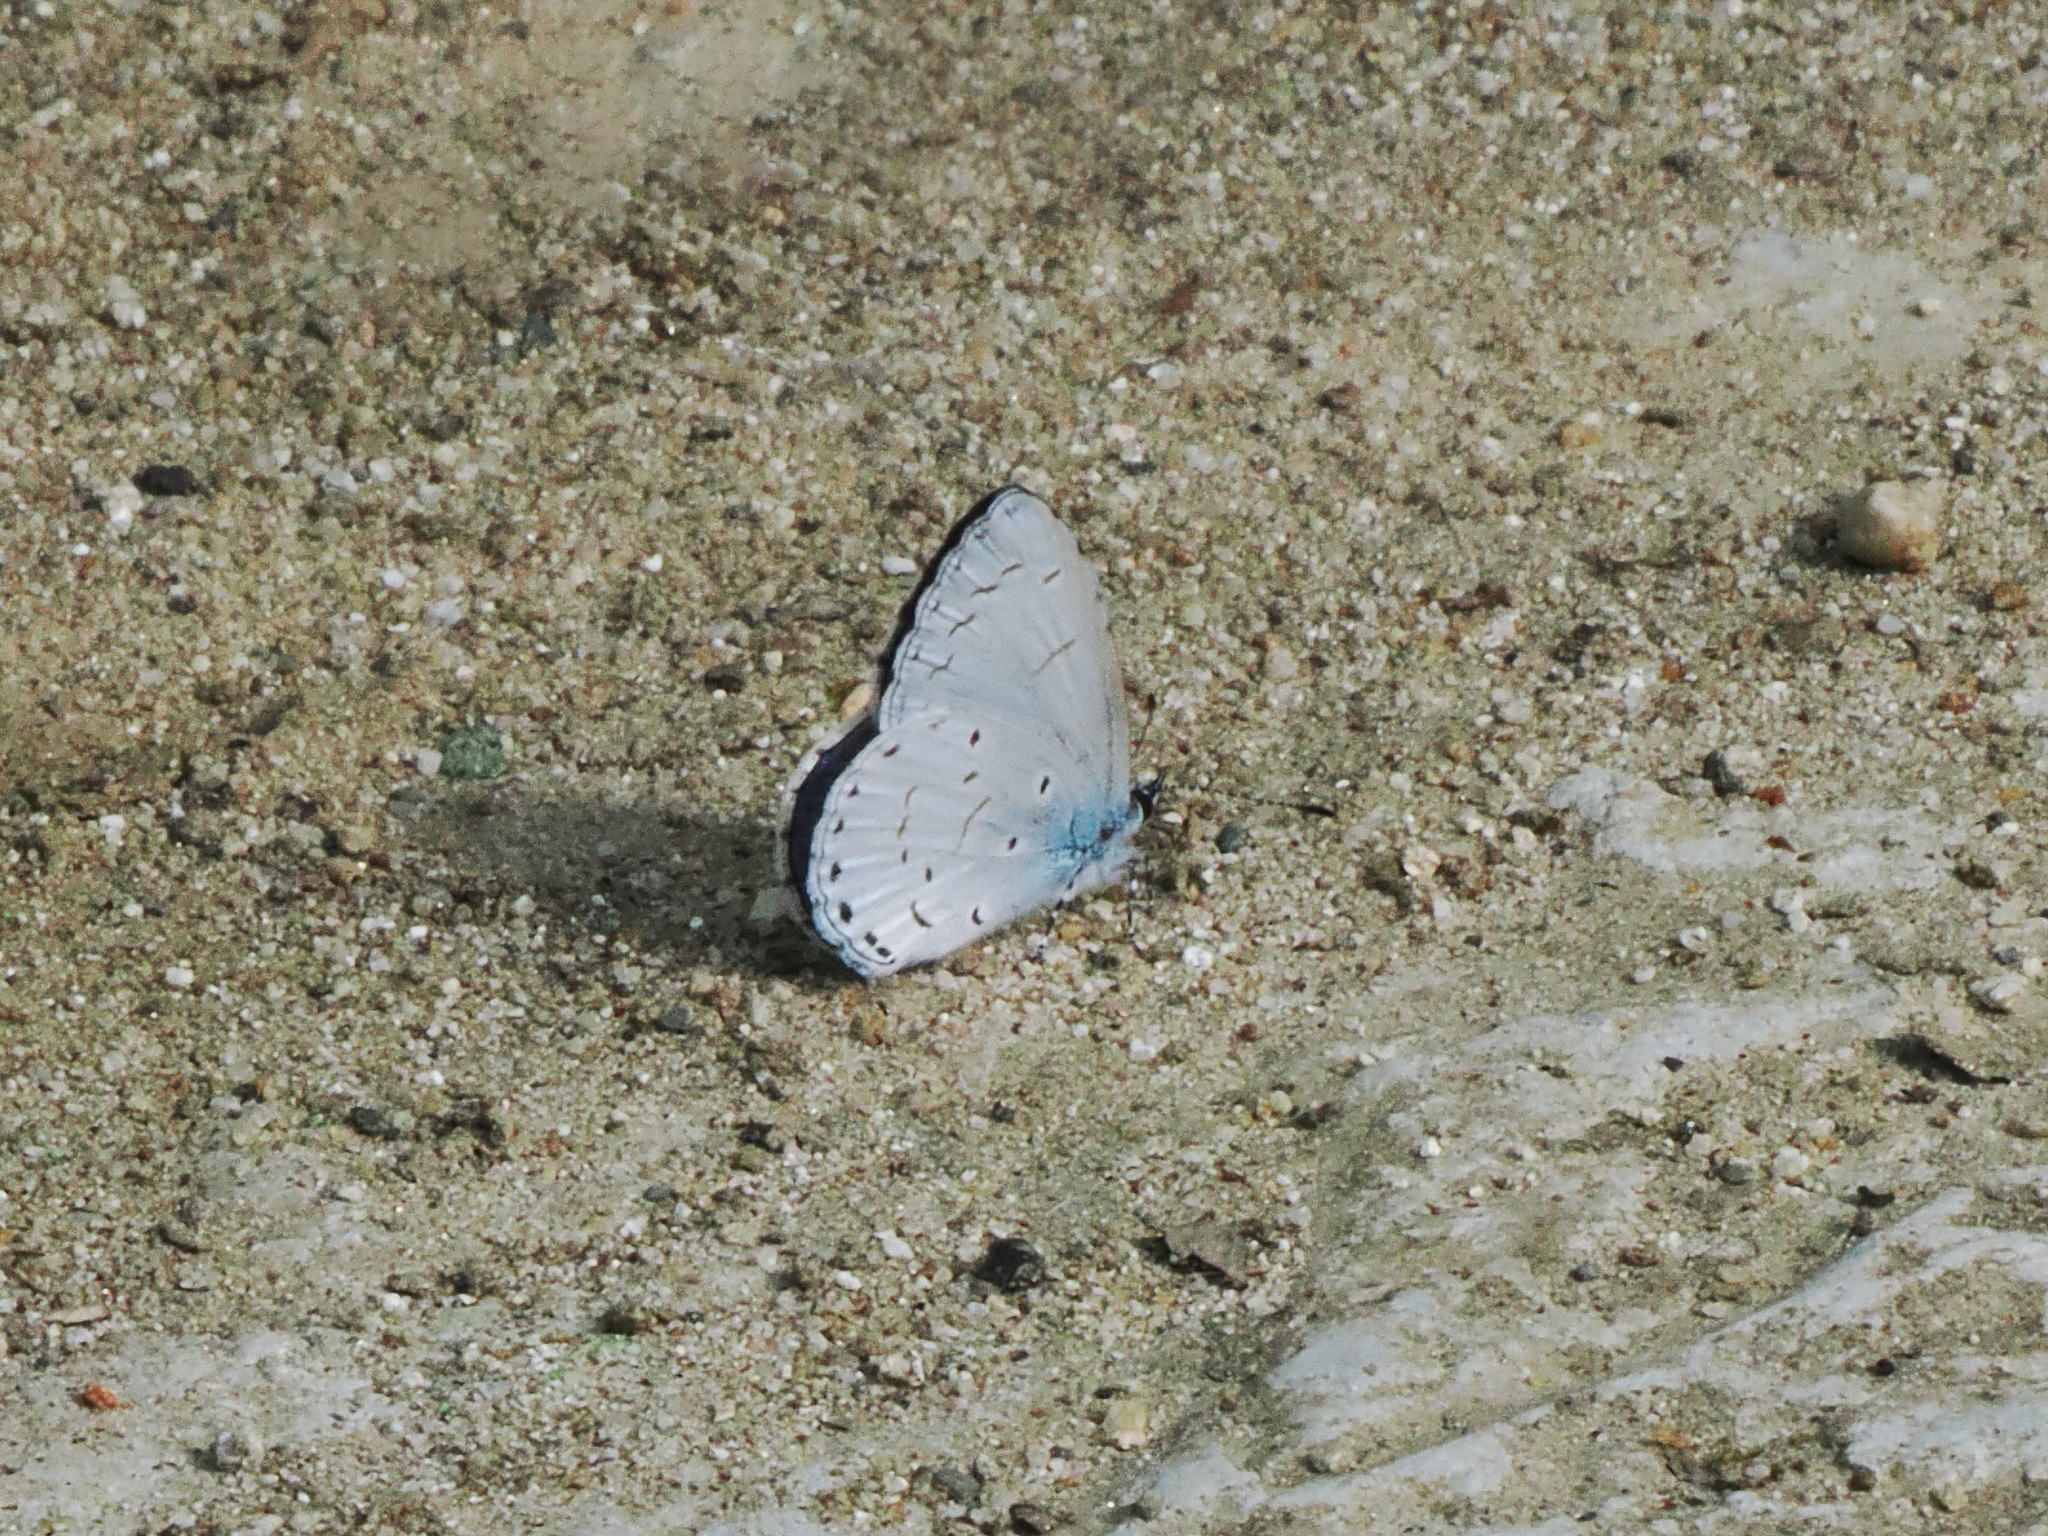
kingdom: Animalia
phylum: Arthropoda
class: Insecta
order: Lepidoptera
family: Lycaenidae
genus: Udara
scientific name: Udara camenae
